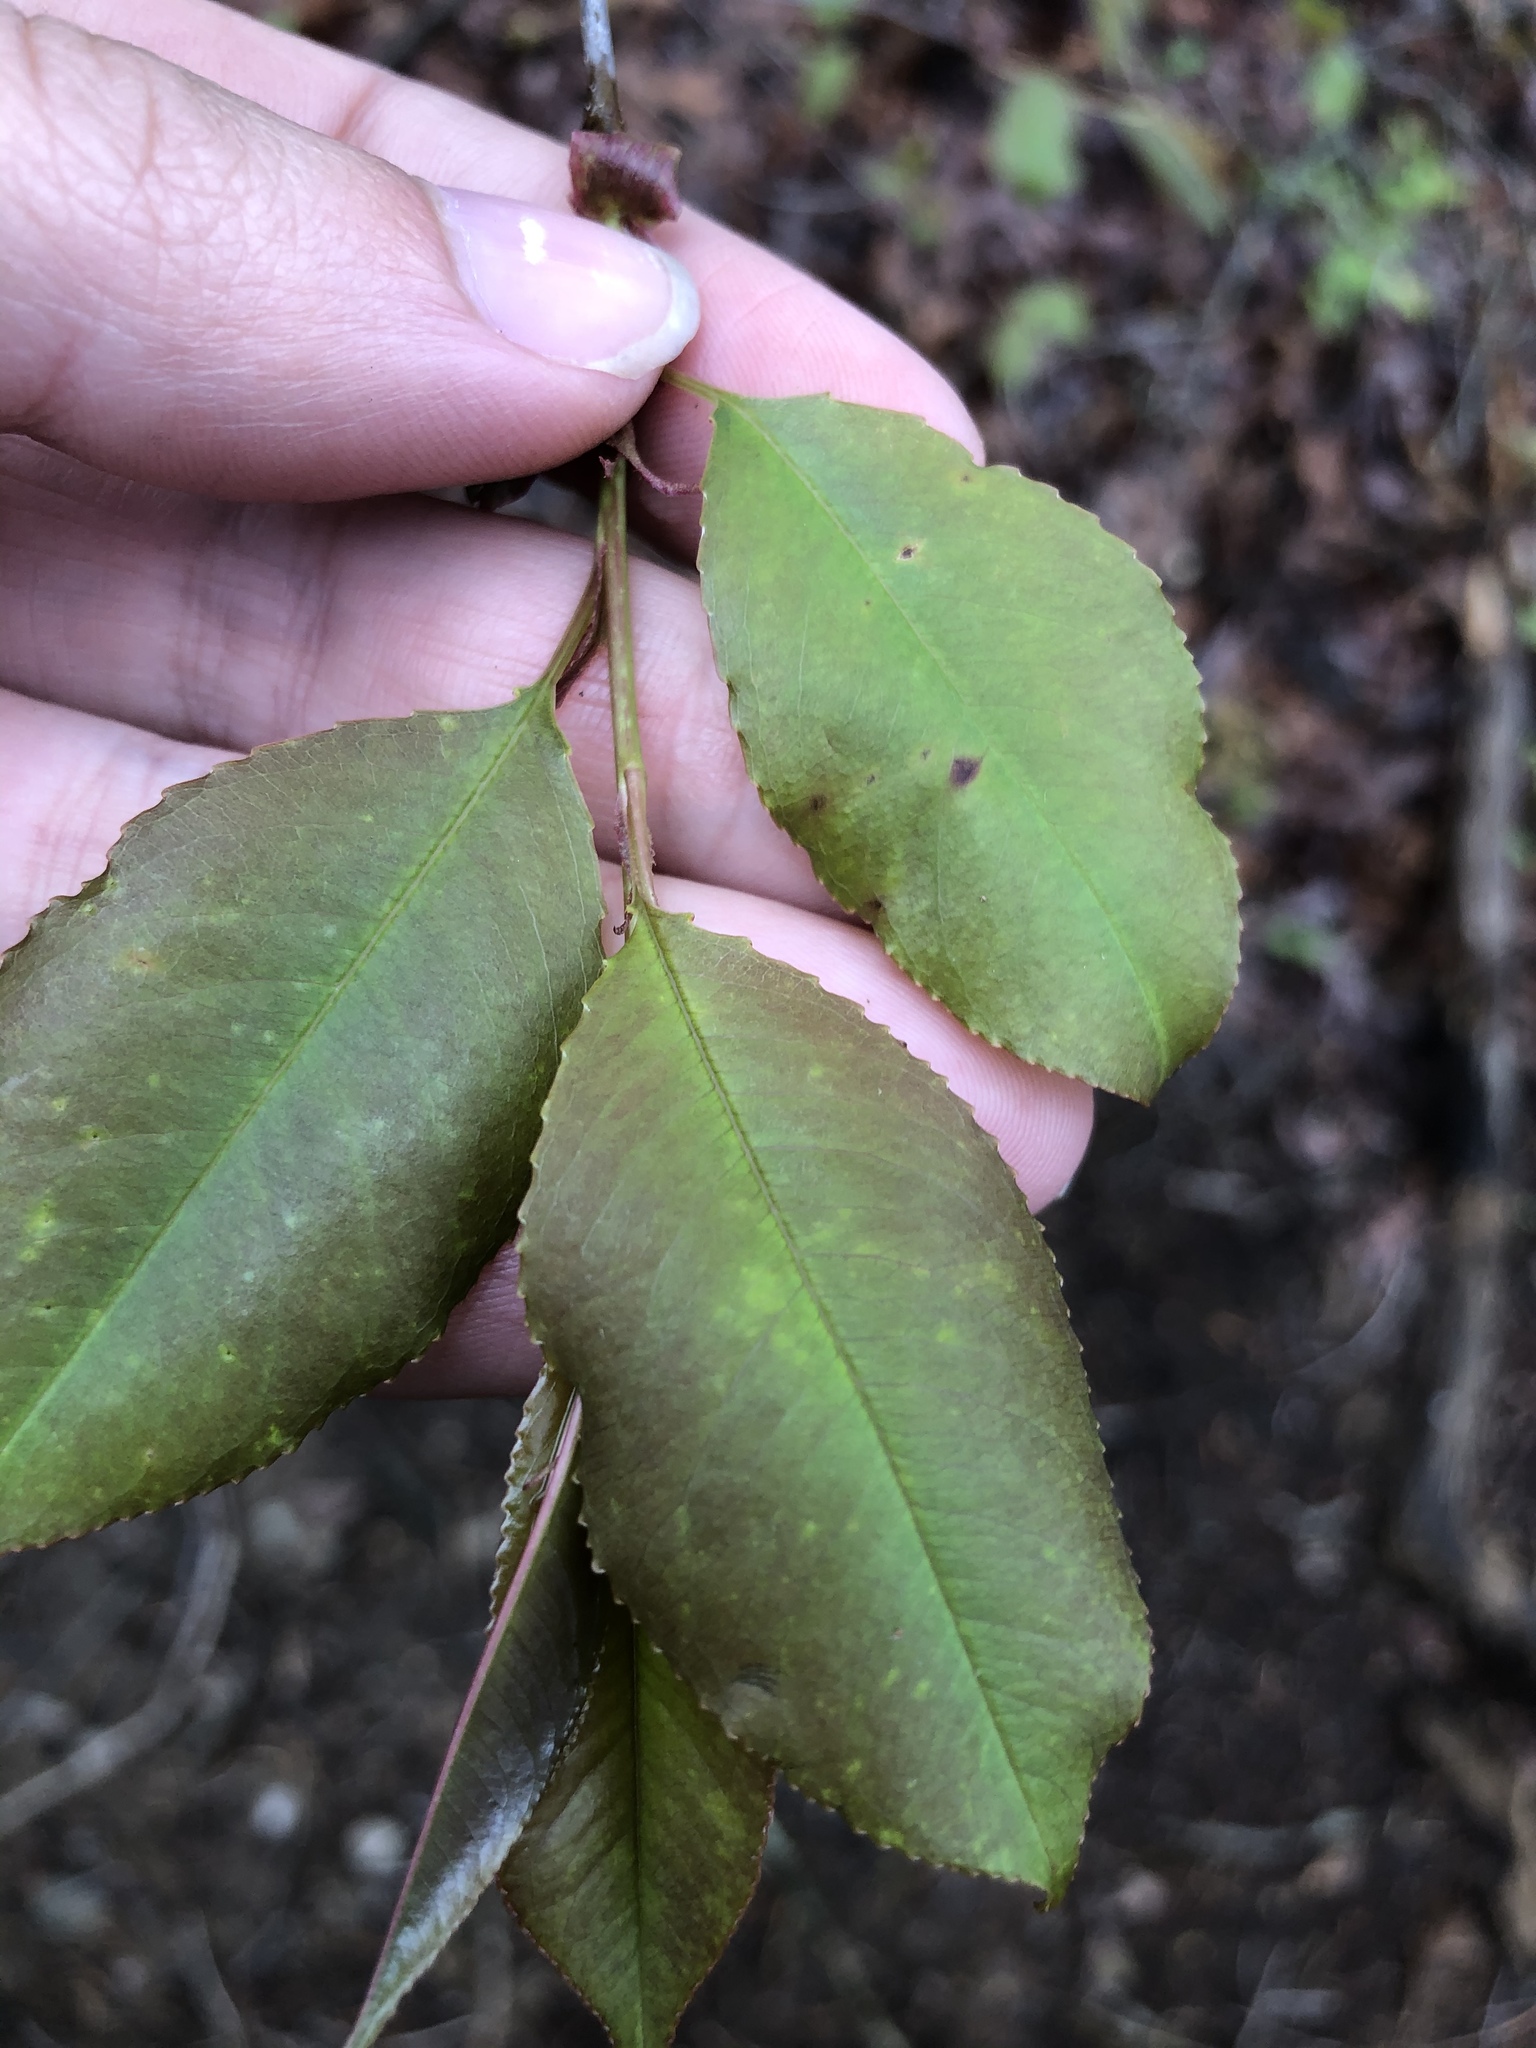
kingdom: Animalia
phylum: Arthropoda
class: Arachnida
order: Trombidiformes
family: Eriophyidae
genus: Eriophyes
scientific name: Eriophyes
